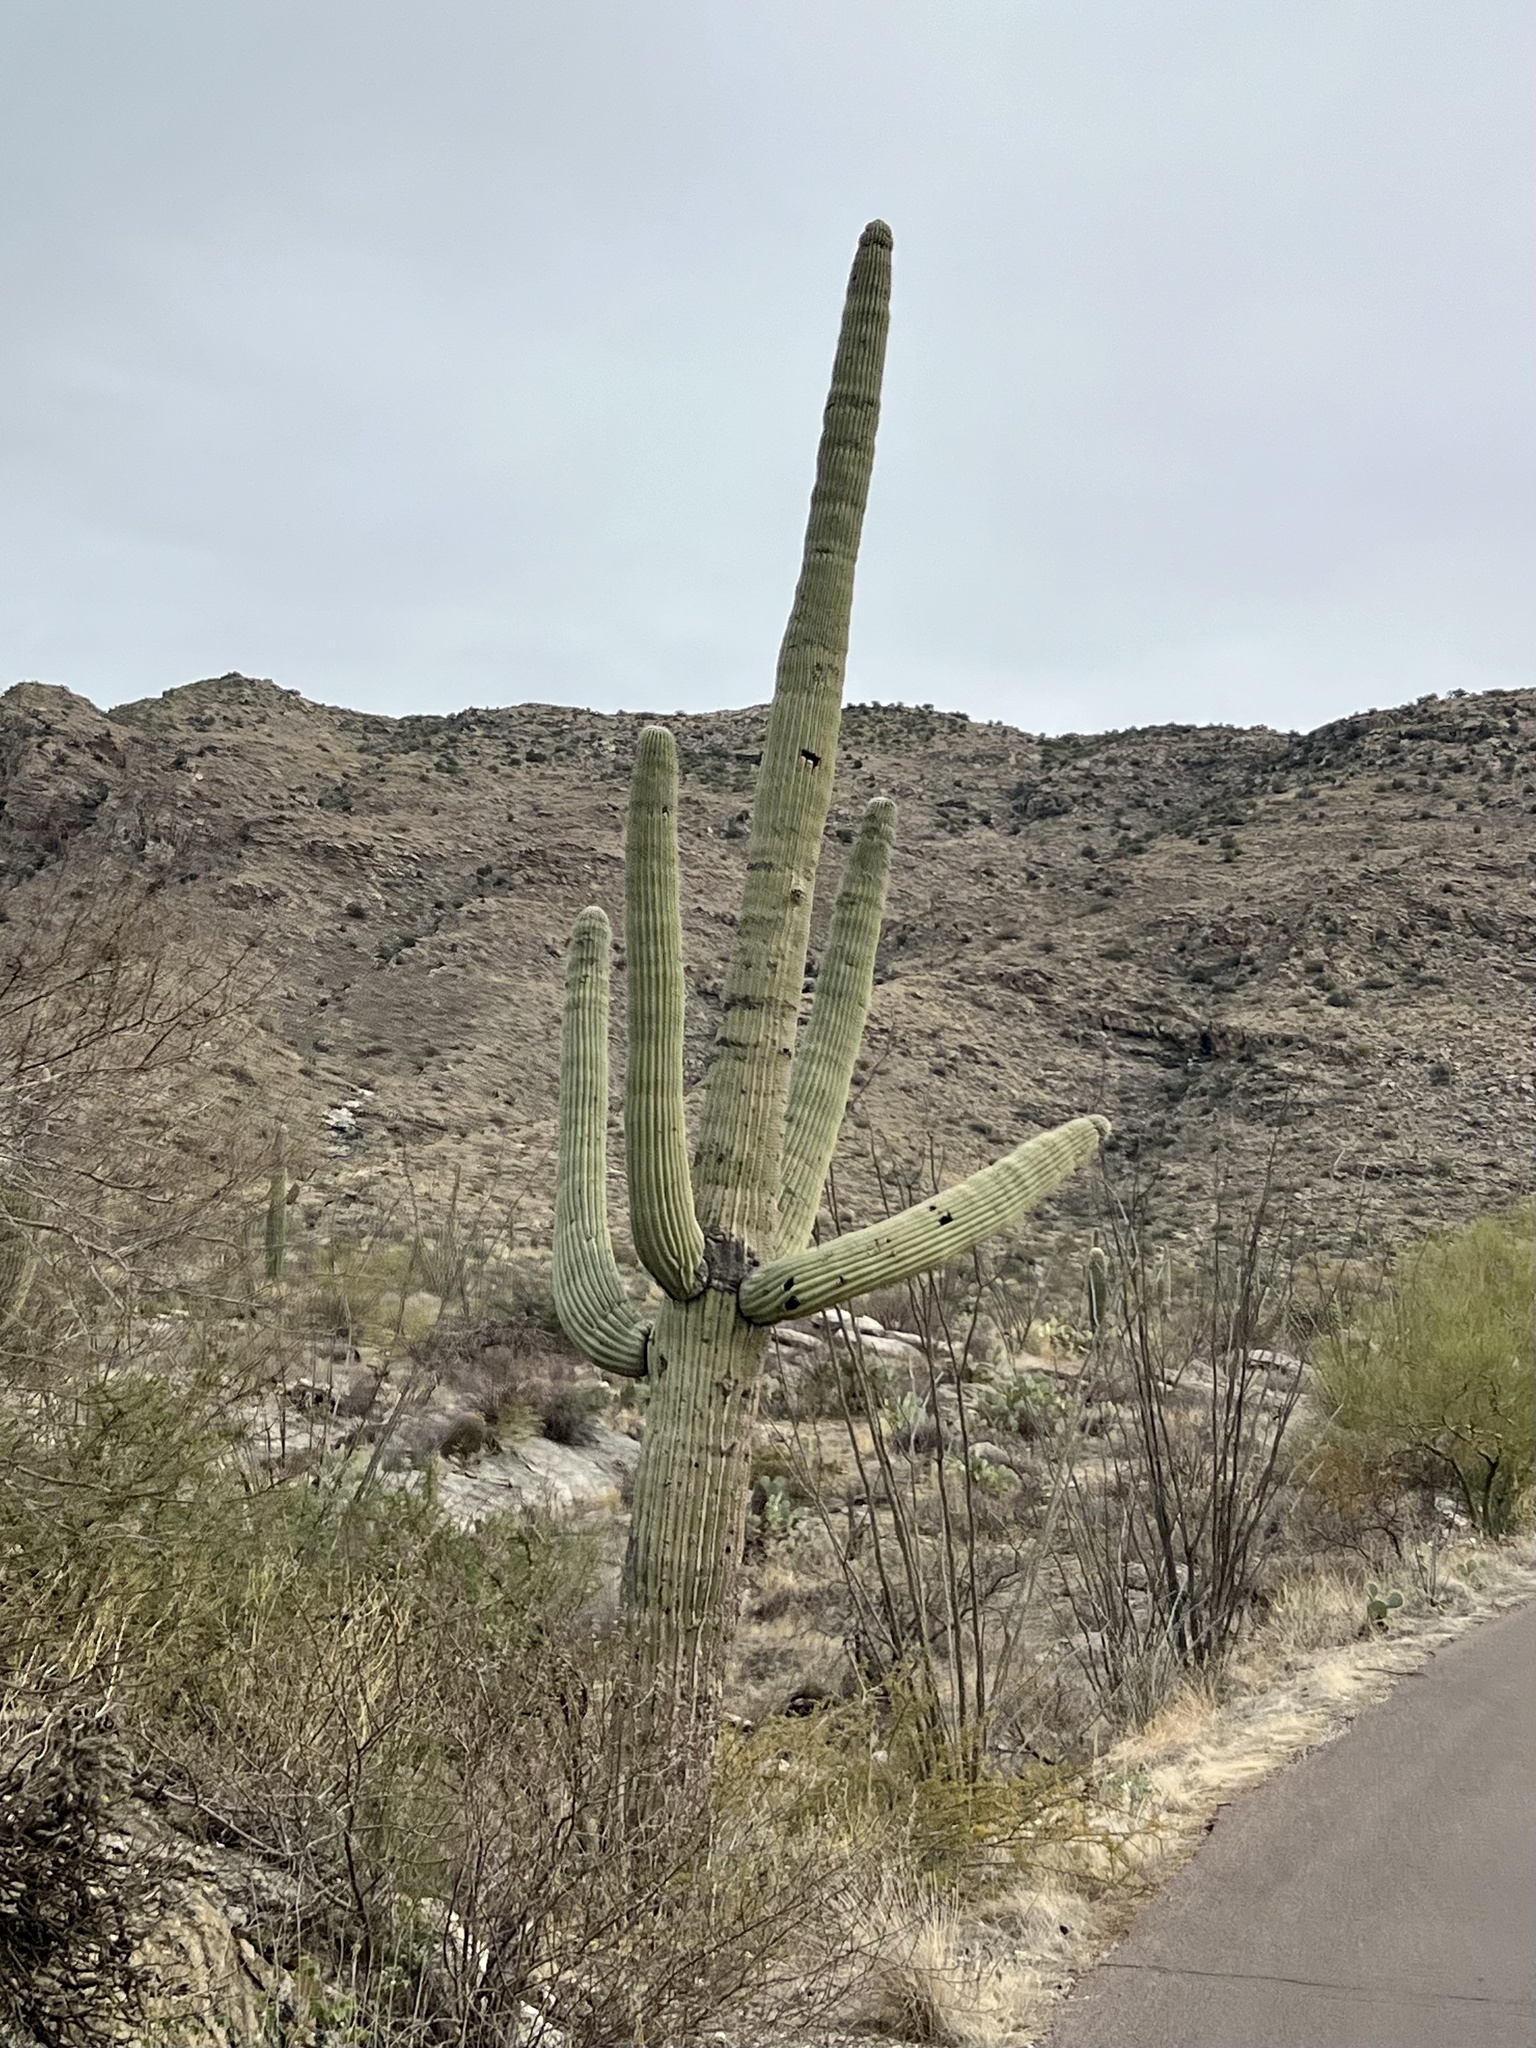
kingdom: Plantae
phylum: Tracheophyta
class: Magnoliopsida
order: Caryophyllales
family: Cactaceae
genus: Carnegiea
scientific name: Carnegiea gigantea
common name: Saguaro
